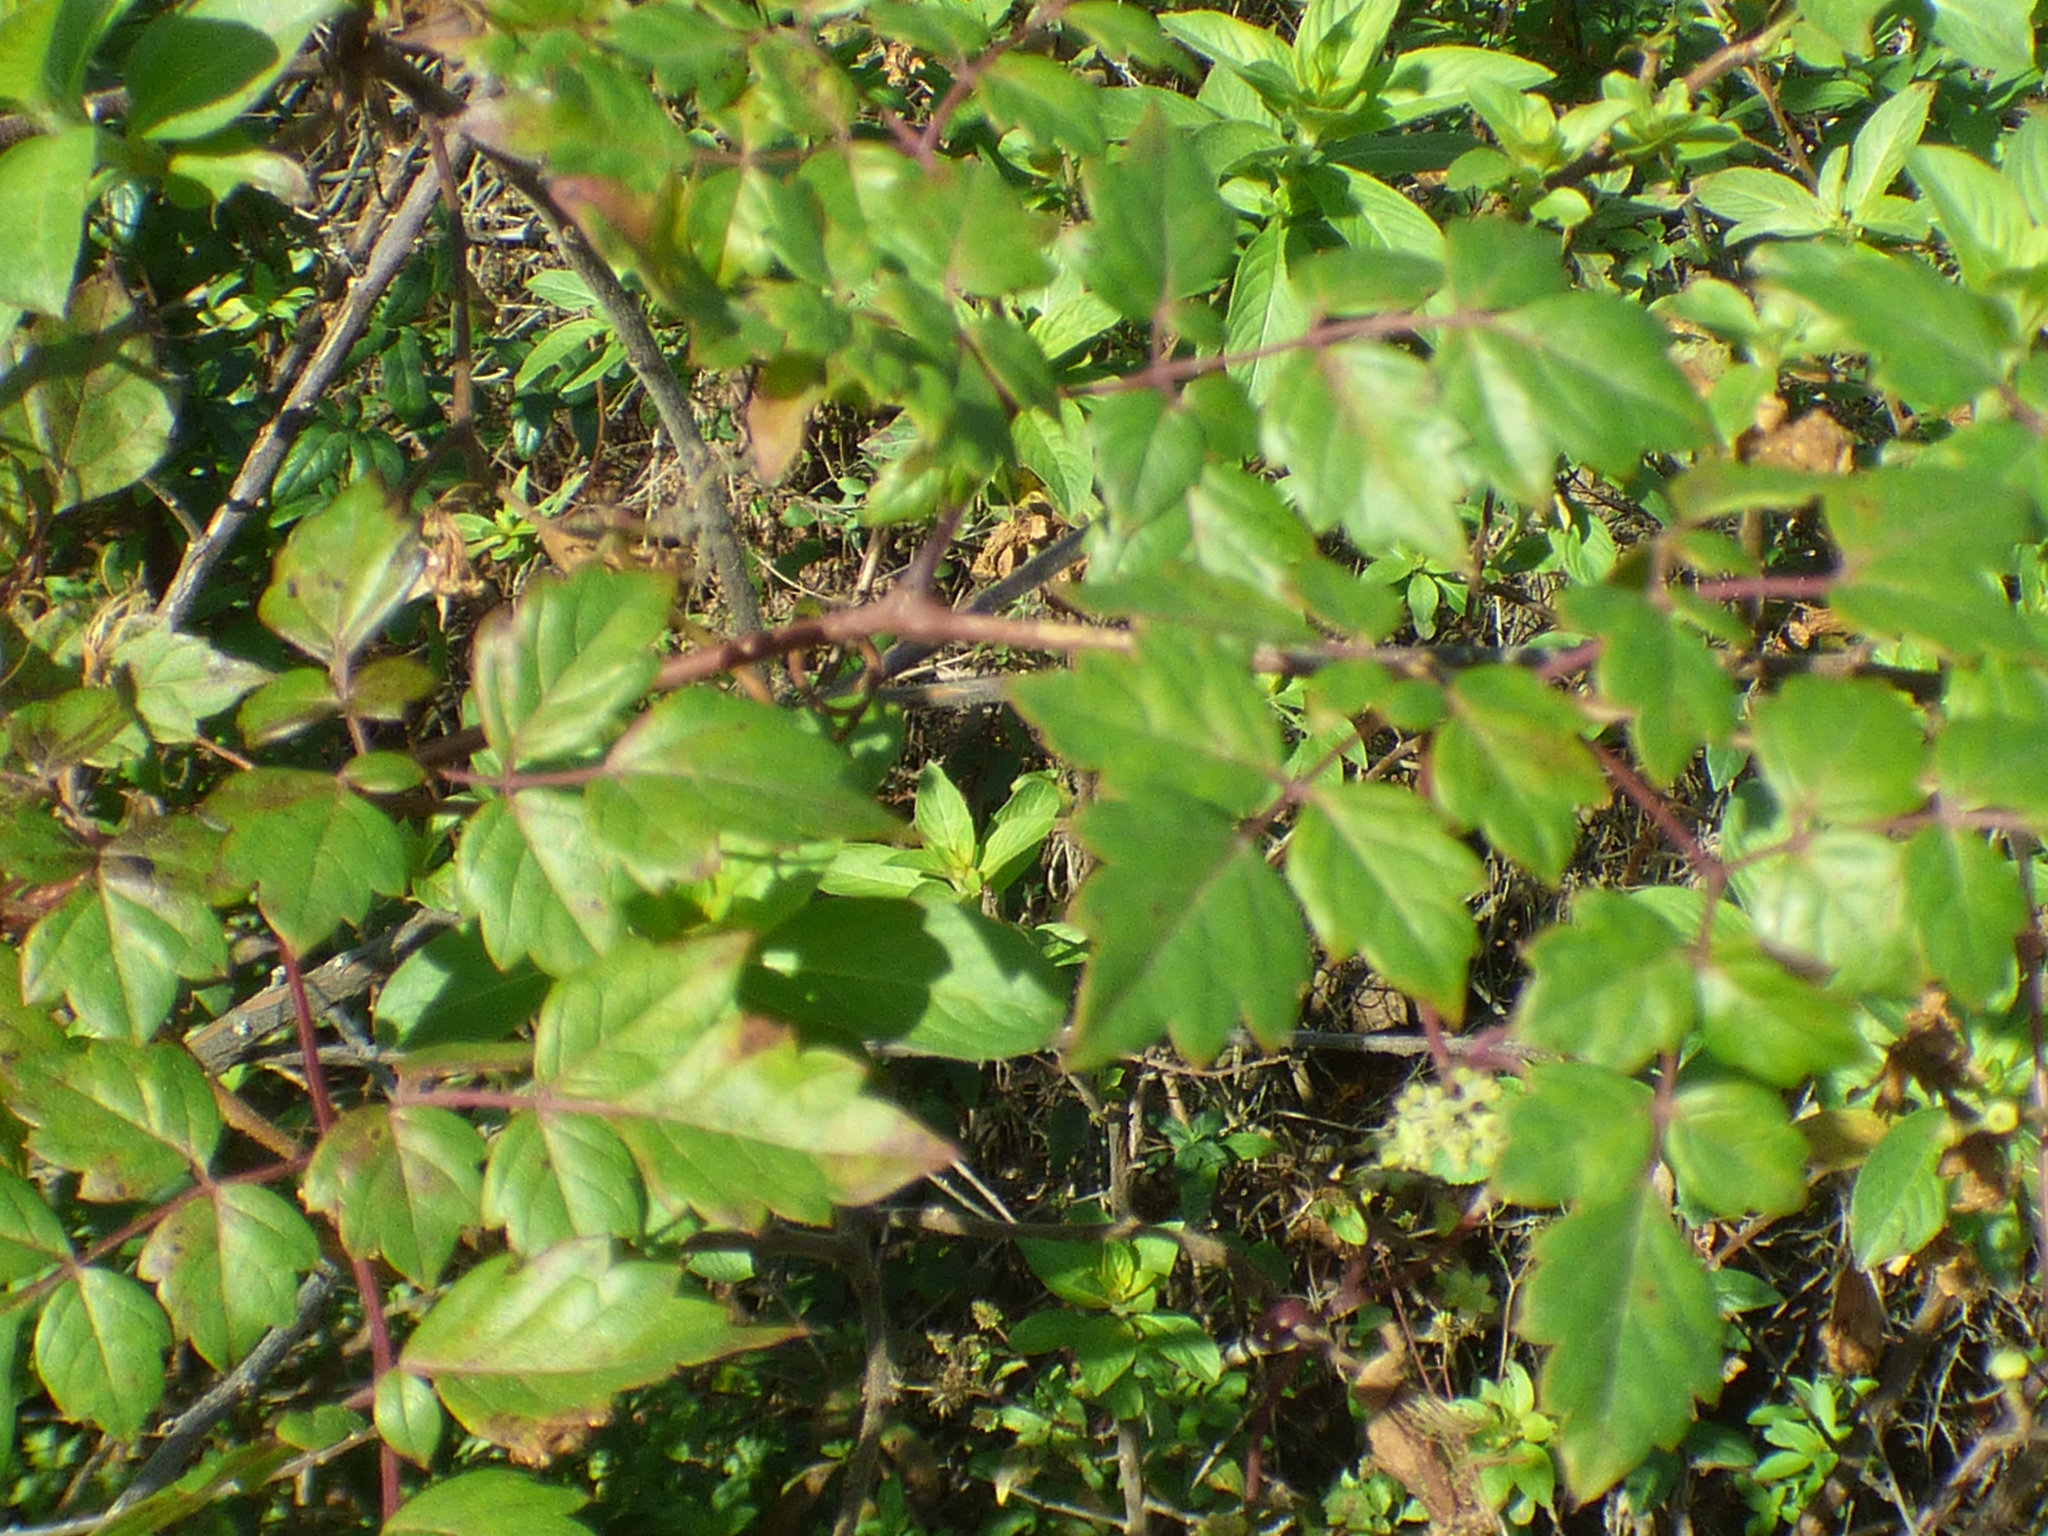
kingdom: Plantae
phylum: Tracheophyta
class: Magnoliopsida
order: Vitales
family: Vitaceae
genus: Nekemias
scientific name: Nekemias arborea
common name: Peppervine
